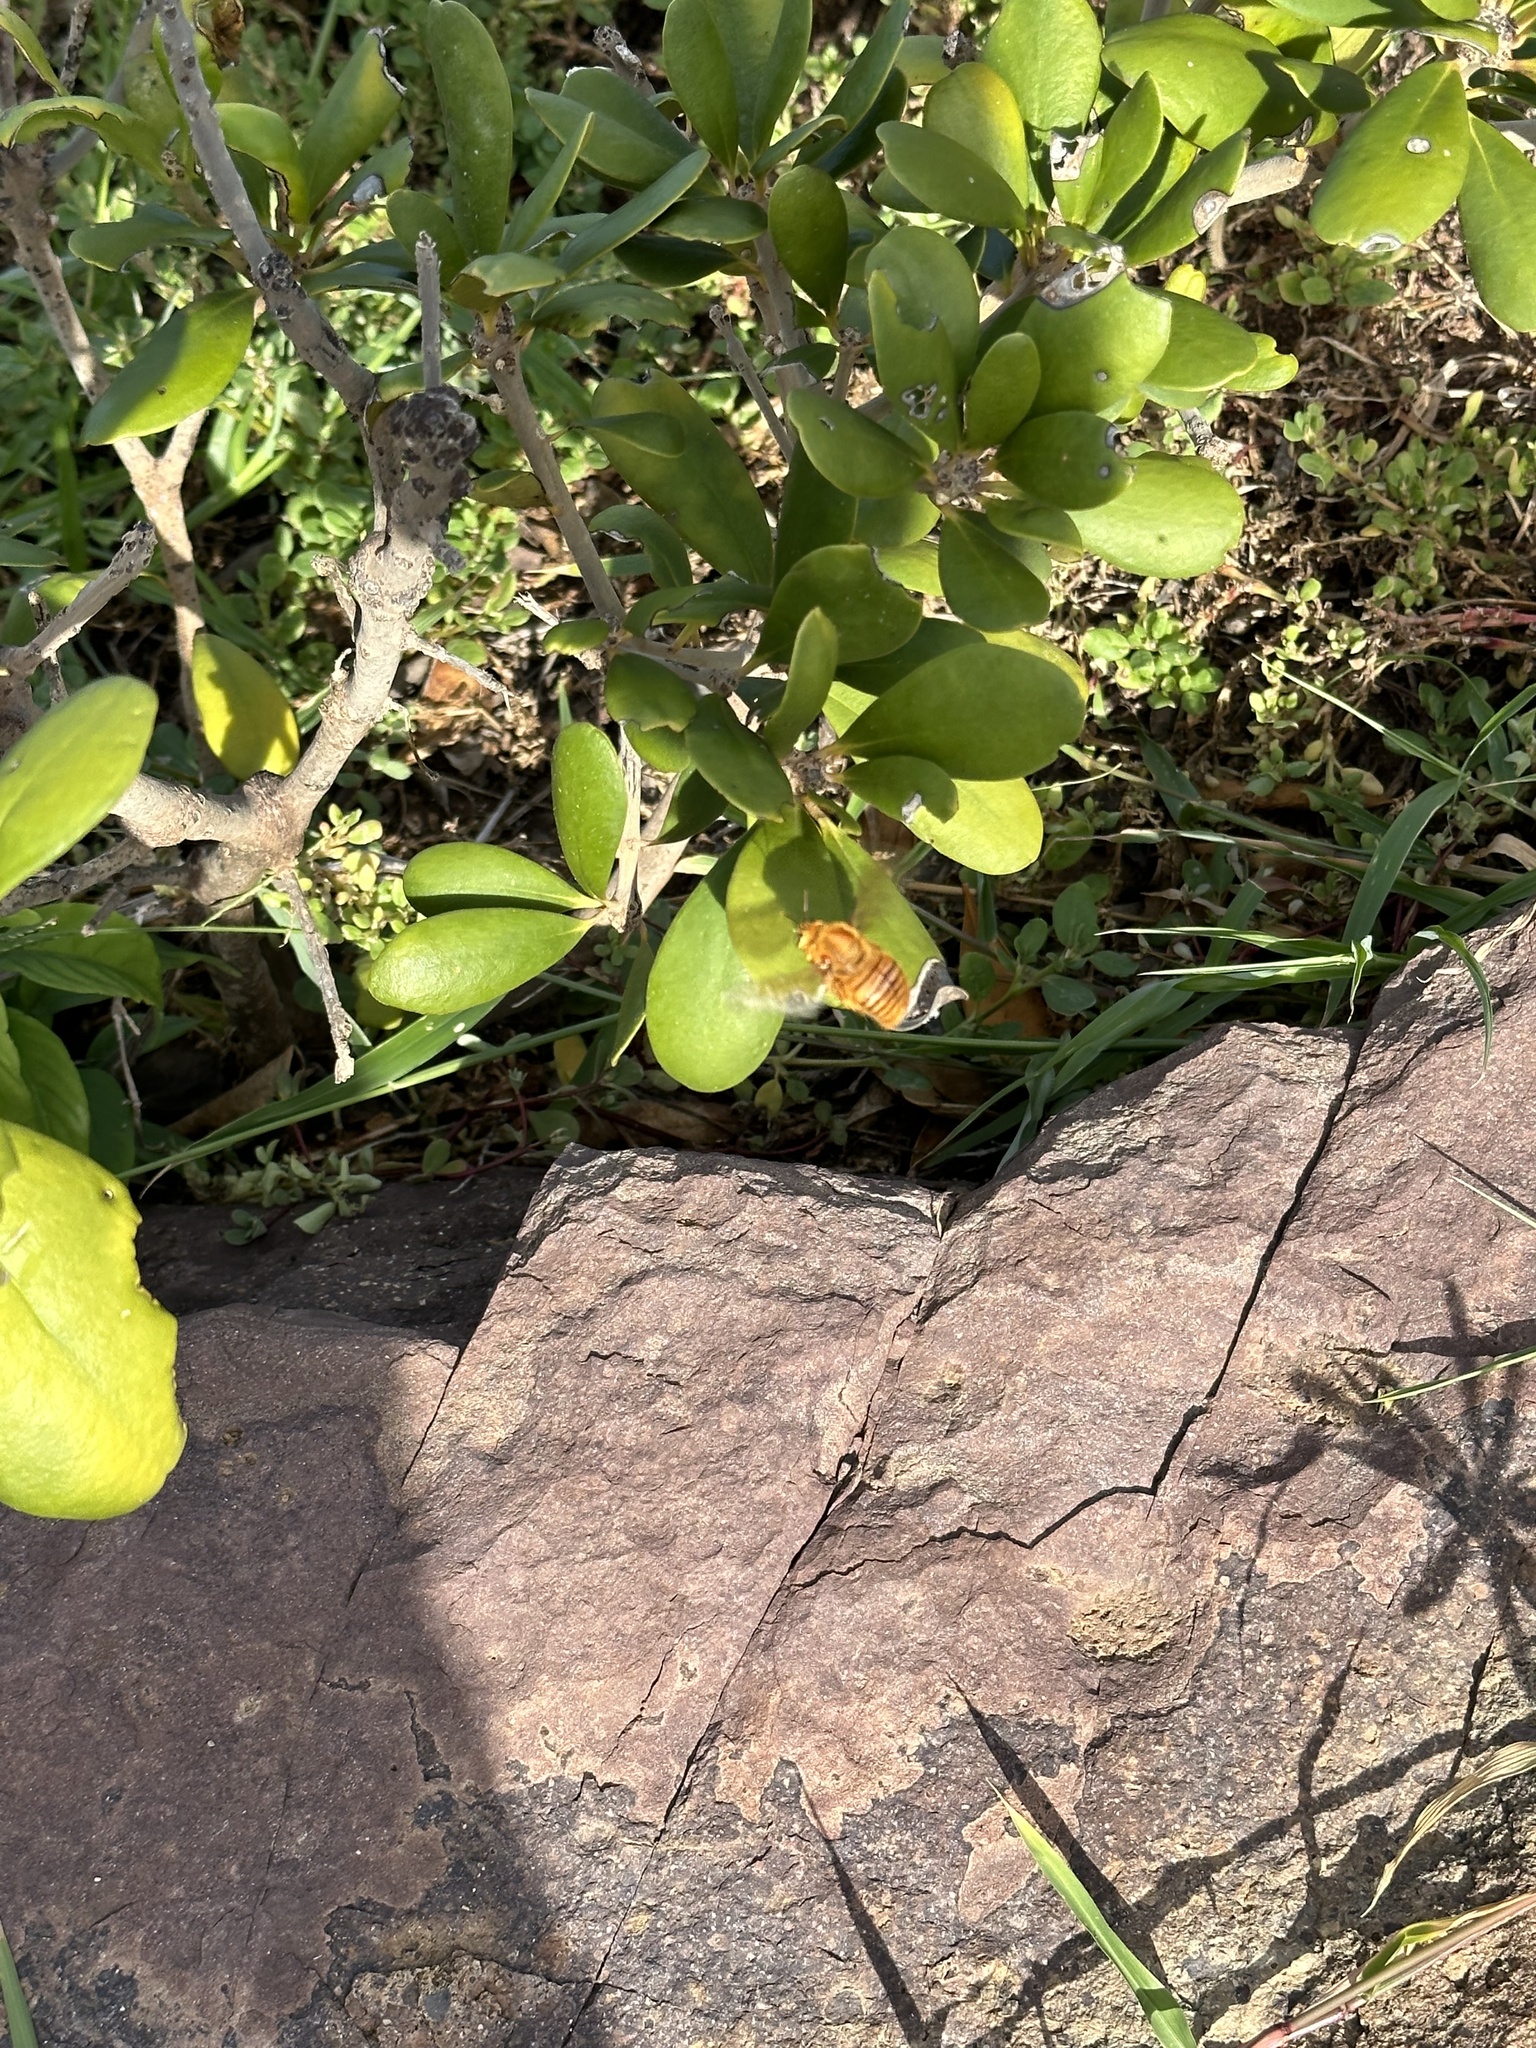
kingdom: Animalia
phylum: Arthropoda
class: Insecta
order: Hymenoptera
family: Apidae
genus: Xylocopa
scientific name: Xylocopa mordax
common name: Antillean carpenter bee
